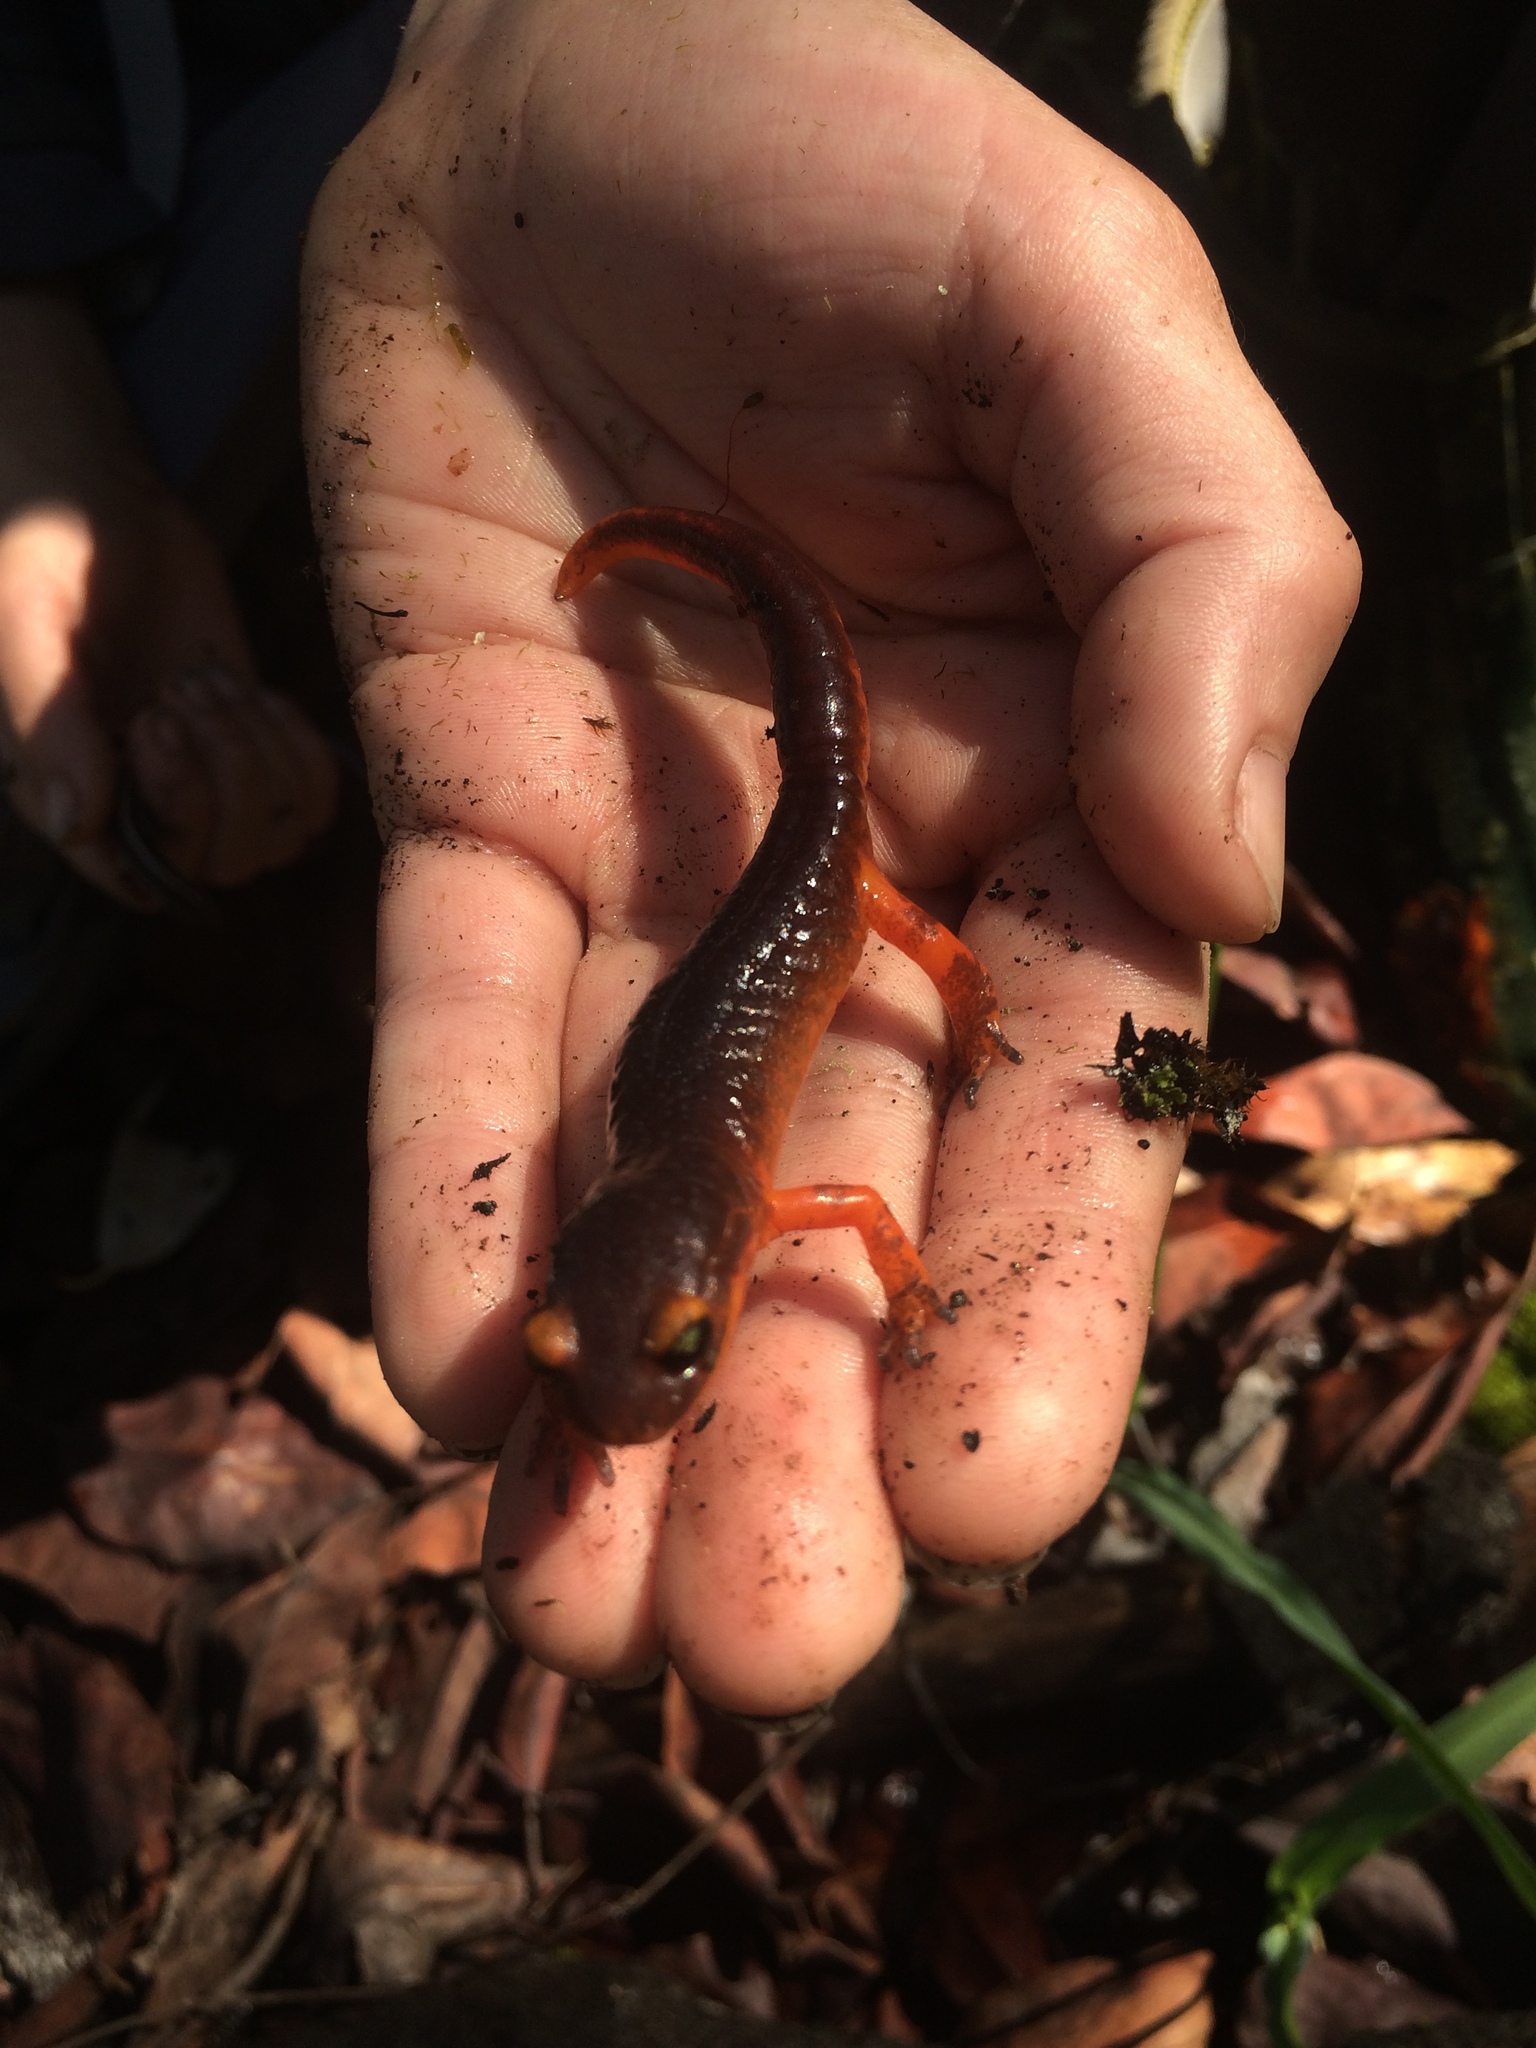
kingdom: Animalia
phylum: Chordata
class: Amphibia
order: Caudata
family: Plethodontidae
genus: Ensatina
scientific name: Ensatina eschscholtzii
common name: Ensatina
